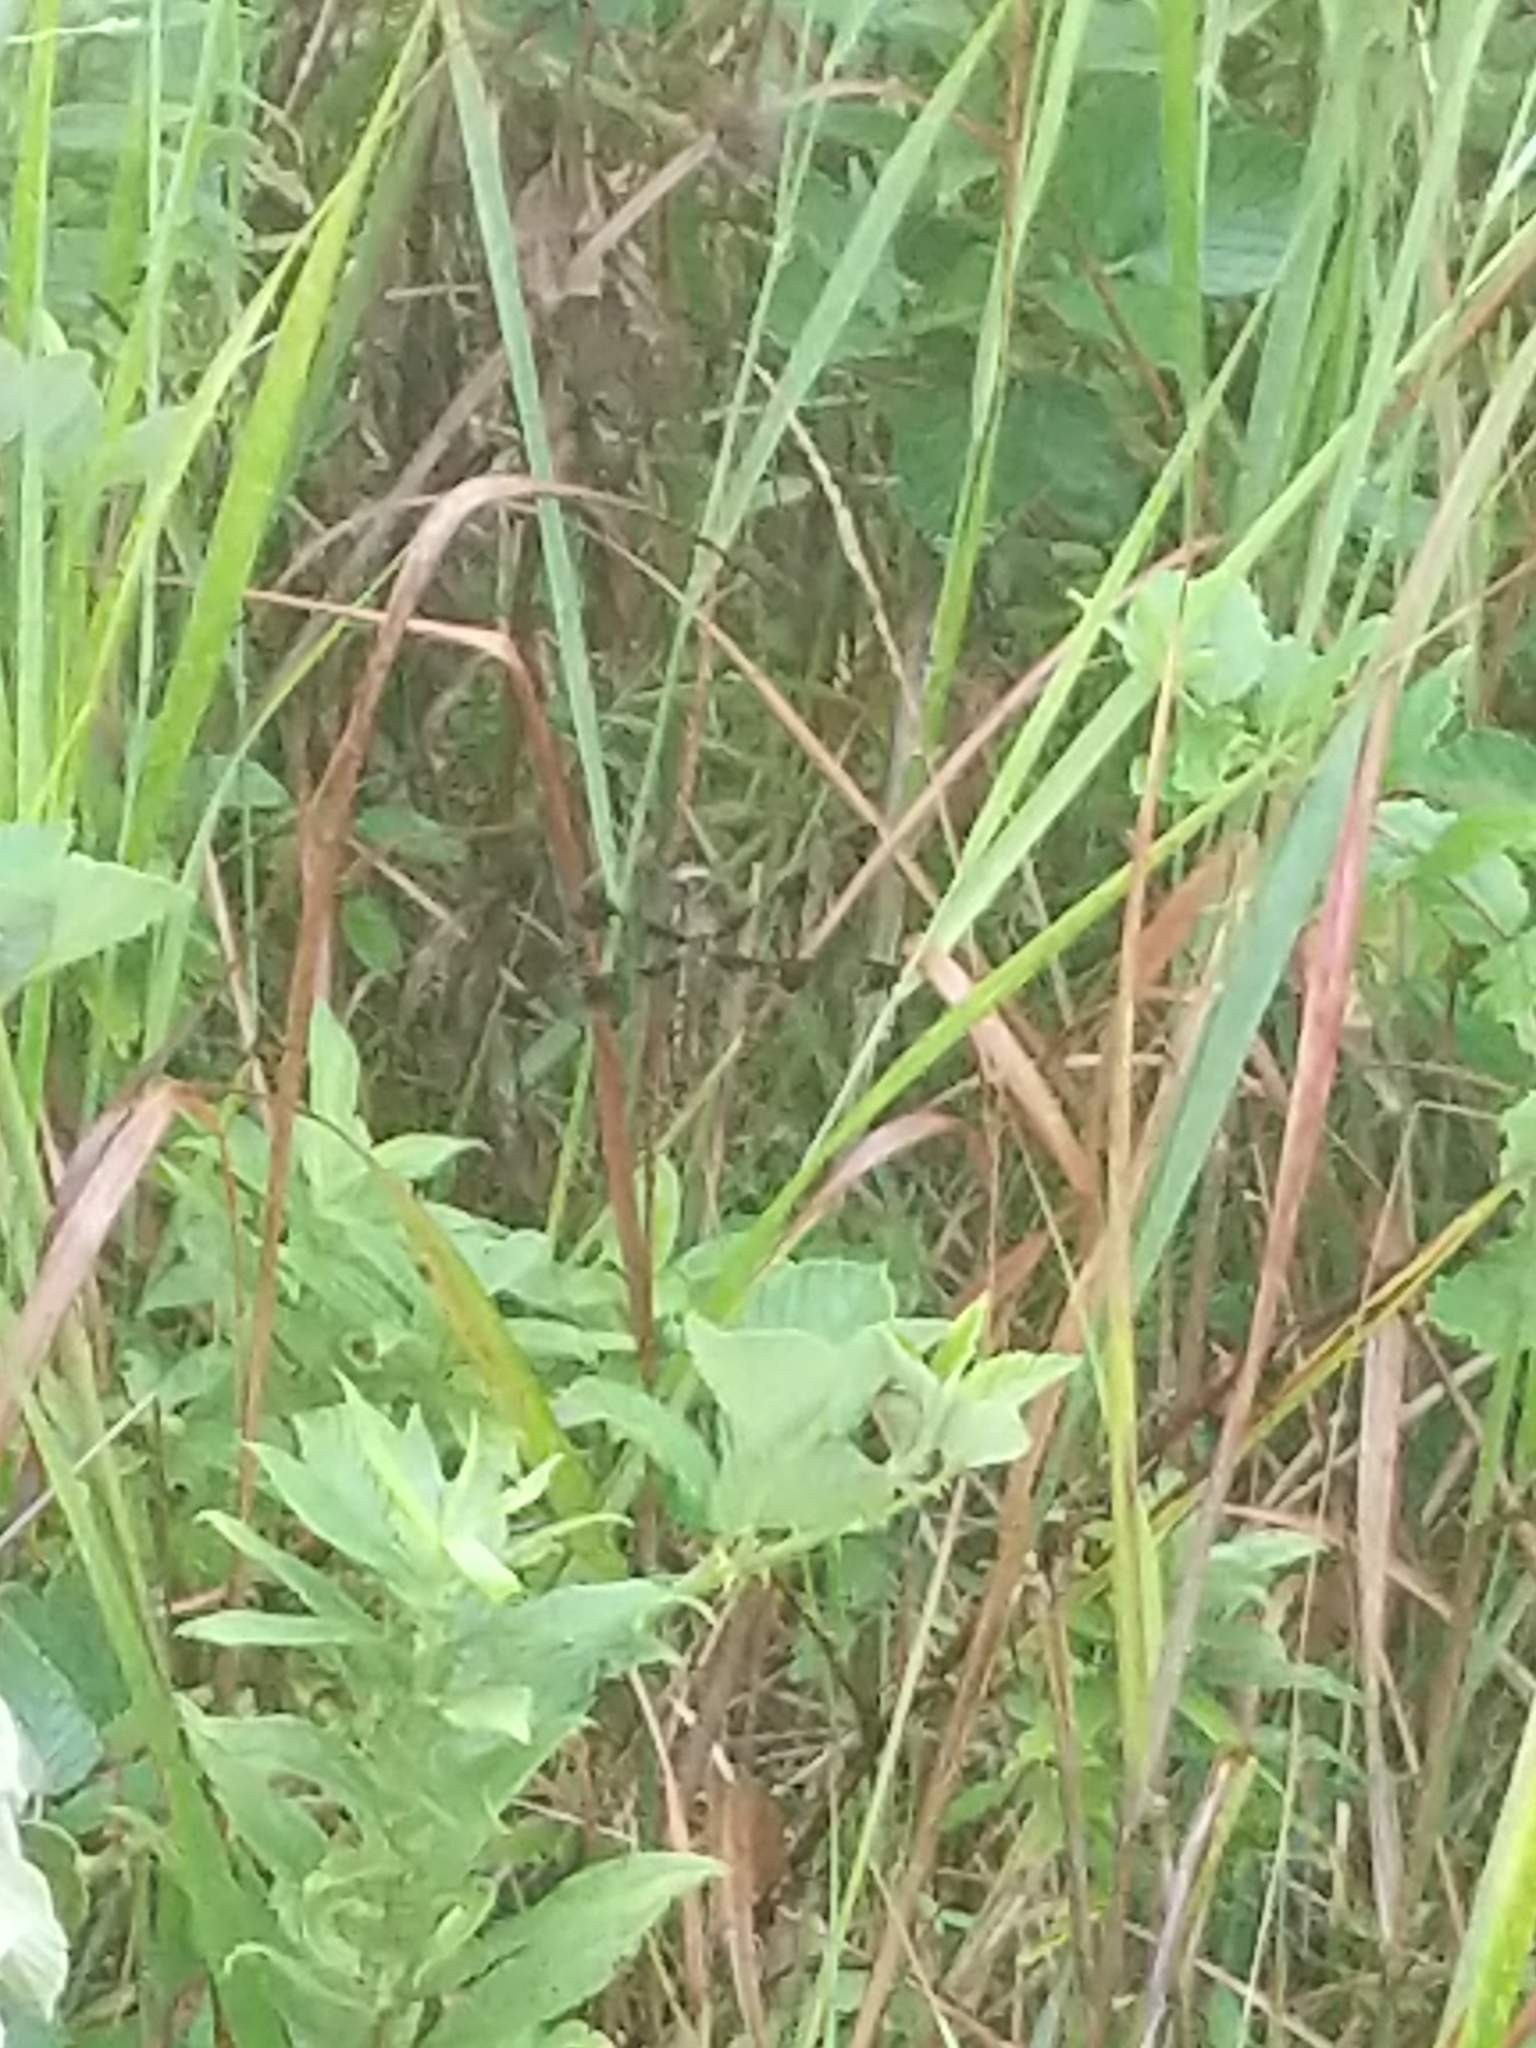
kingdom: Animalia
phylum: Arthropoda
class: Insecta
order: Odonata
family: Libellulidae
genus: Plathemis
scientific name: Plathemis lydia
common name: Common whitetail
